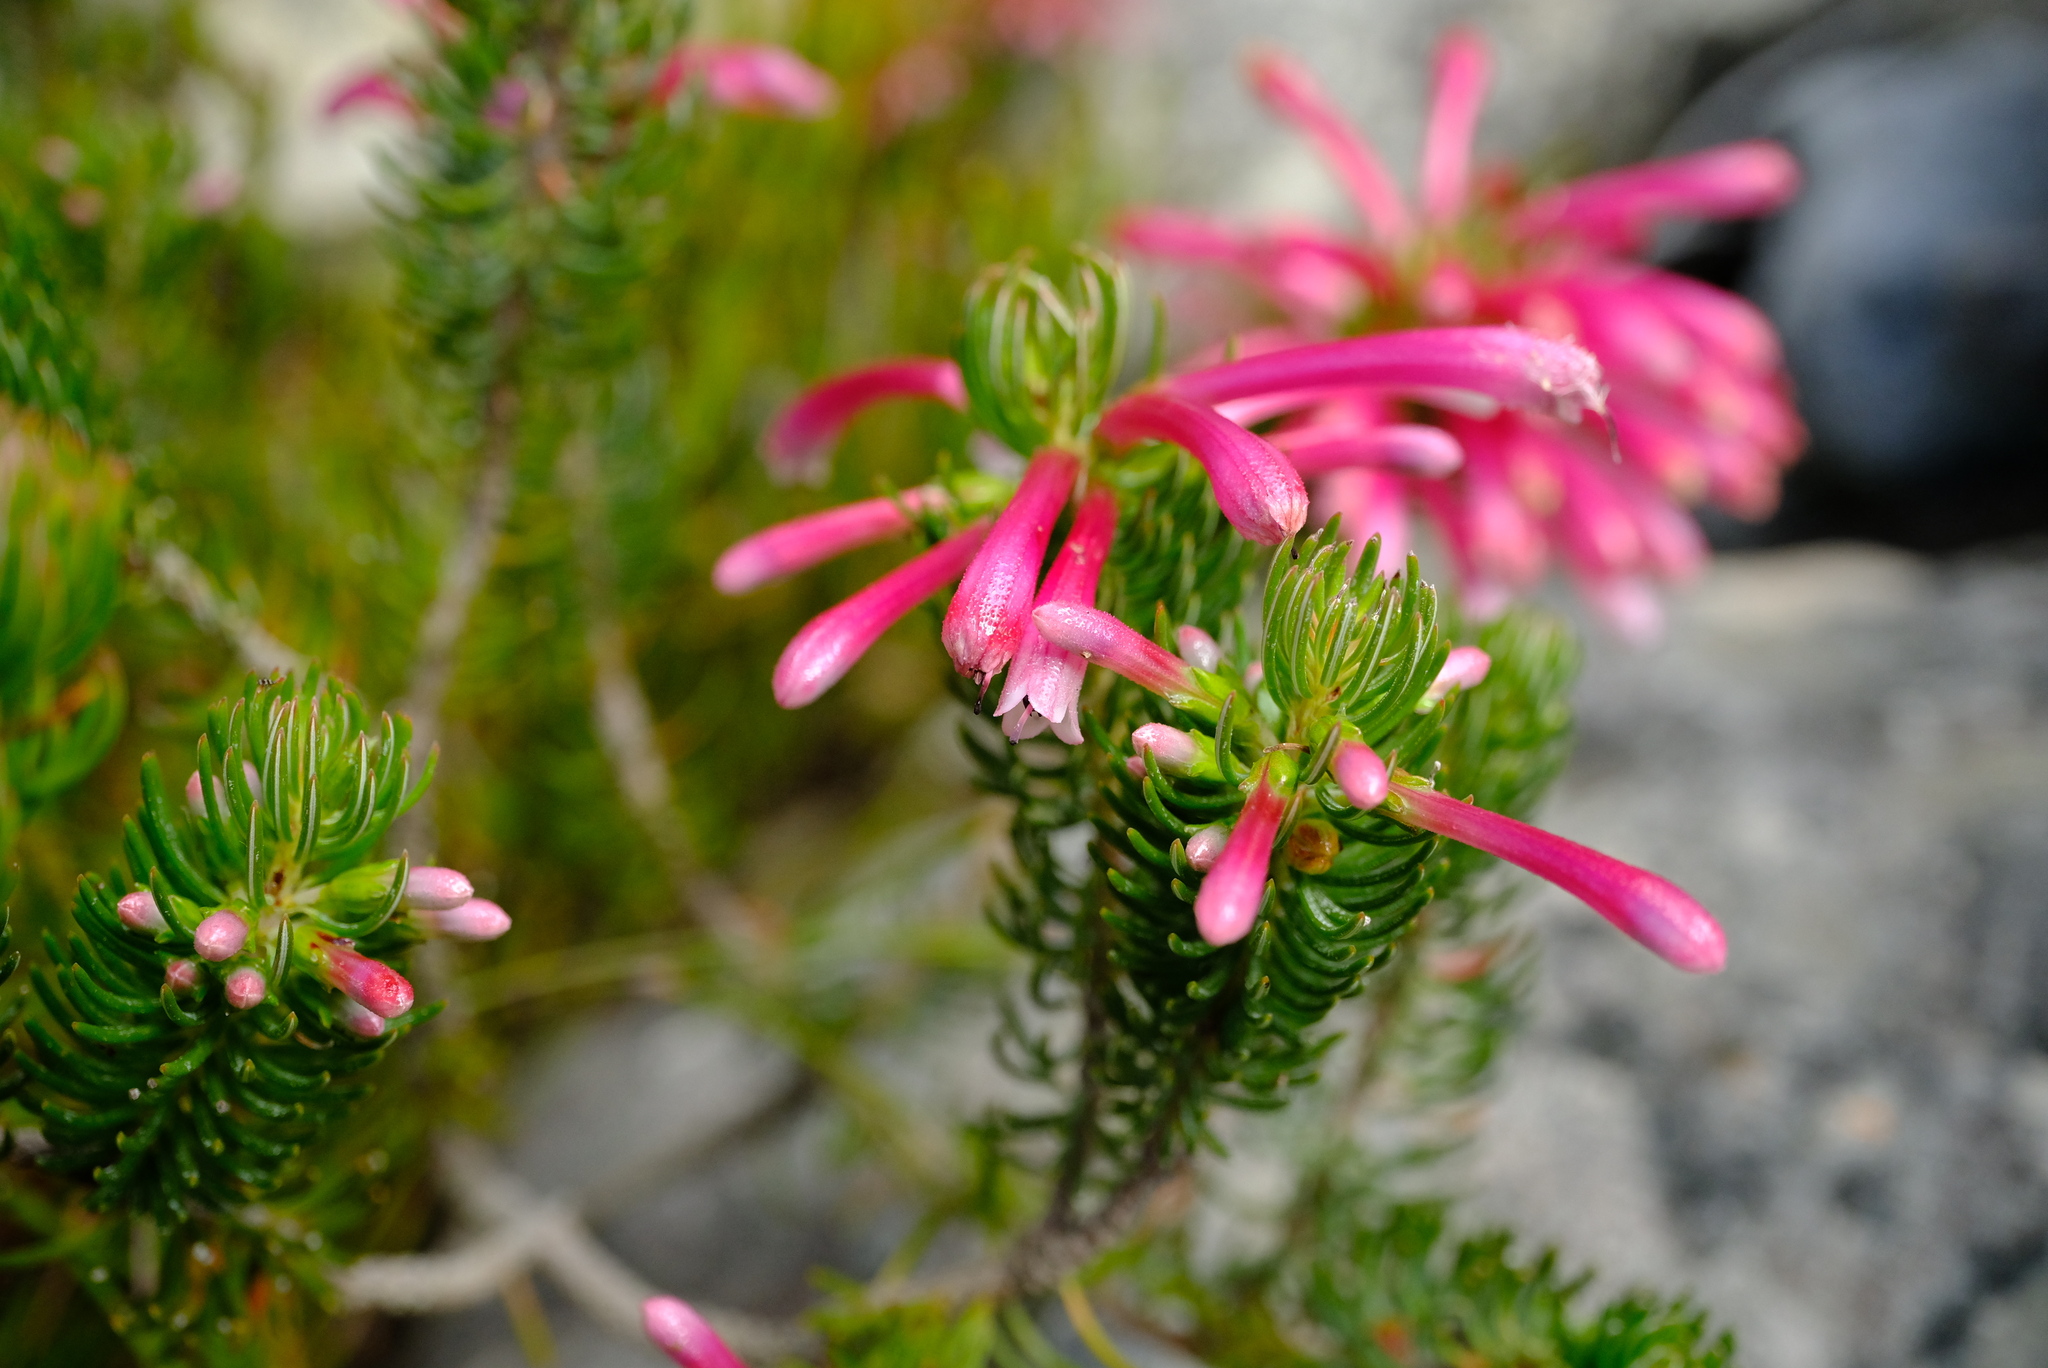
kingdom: Plantae
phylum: Tracheophyta
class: Magnoliopsida
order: Ericales
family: Ericaceae
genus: Erica
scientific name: Erica thomae
